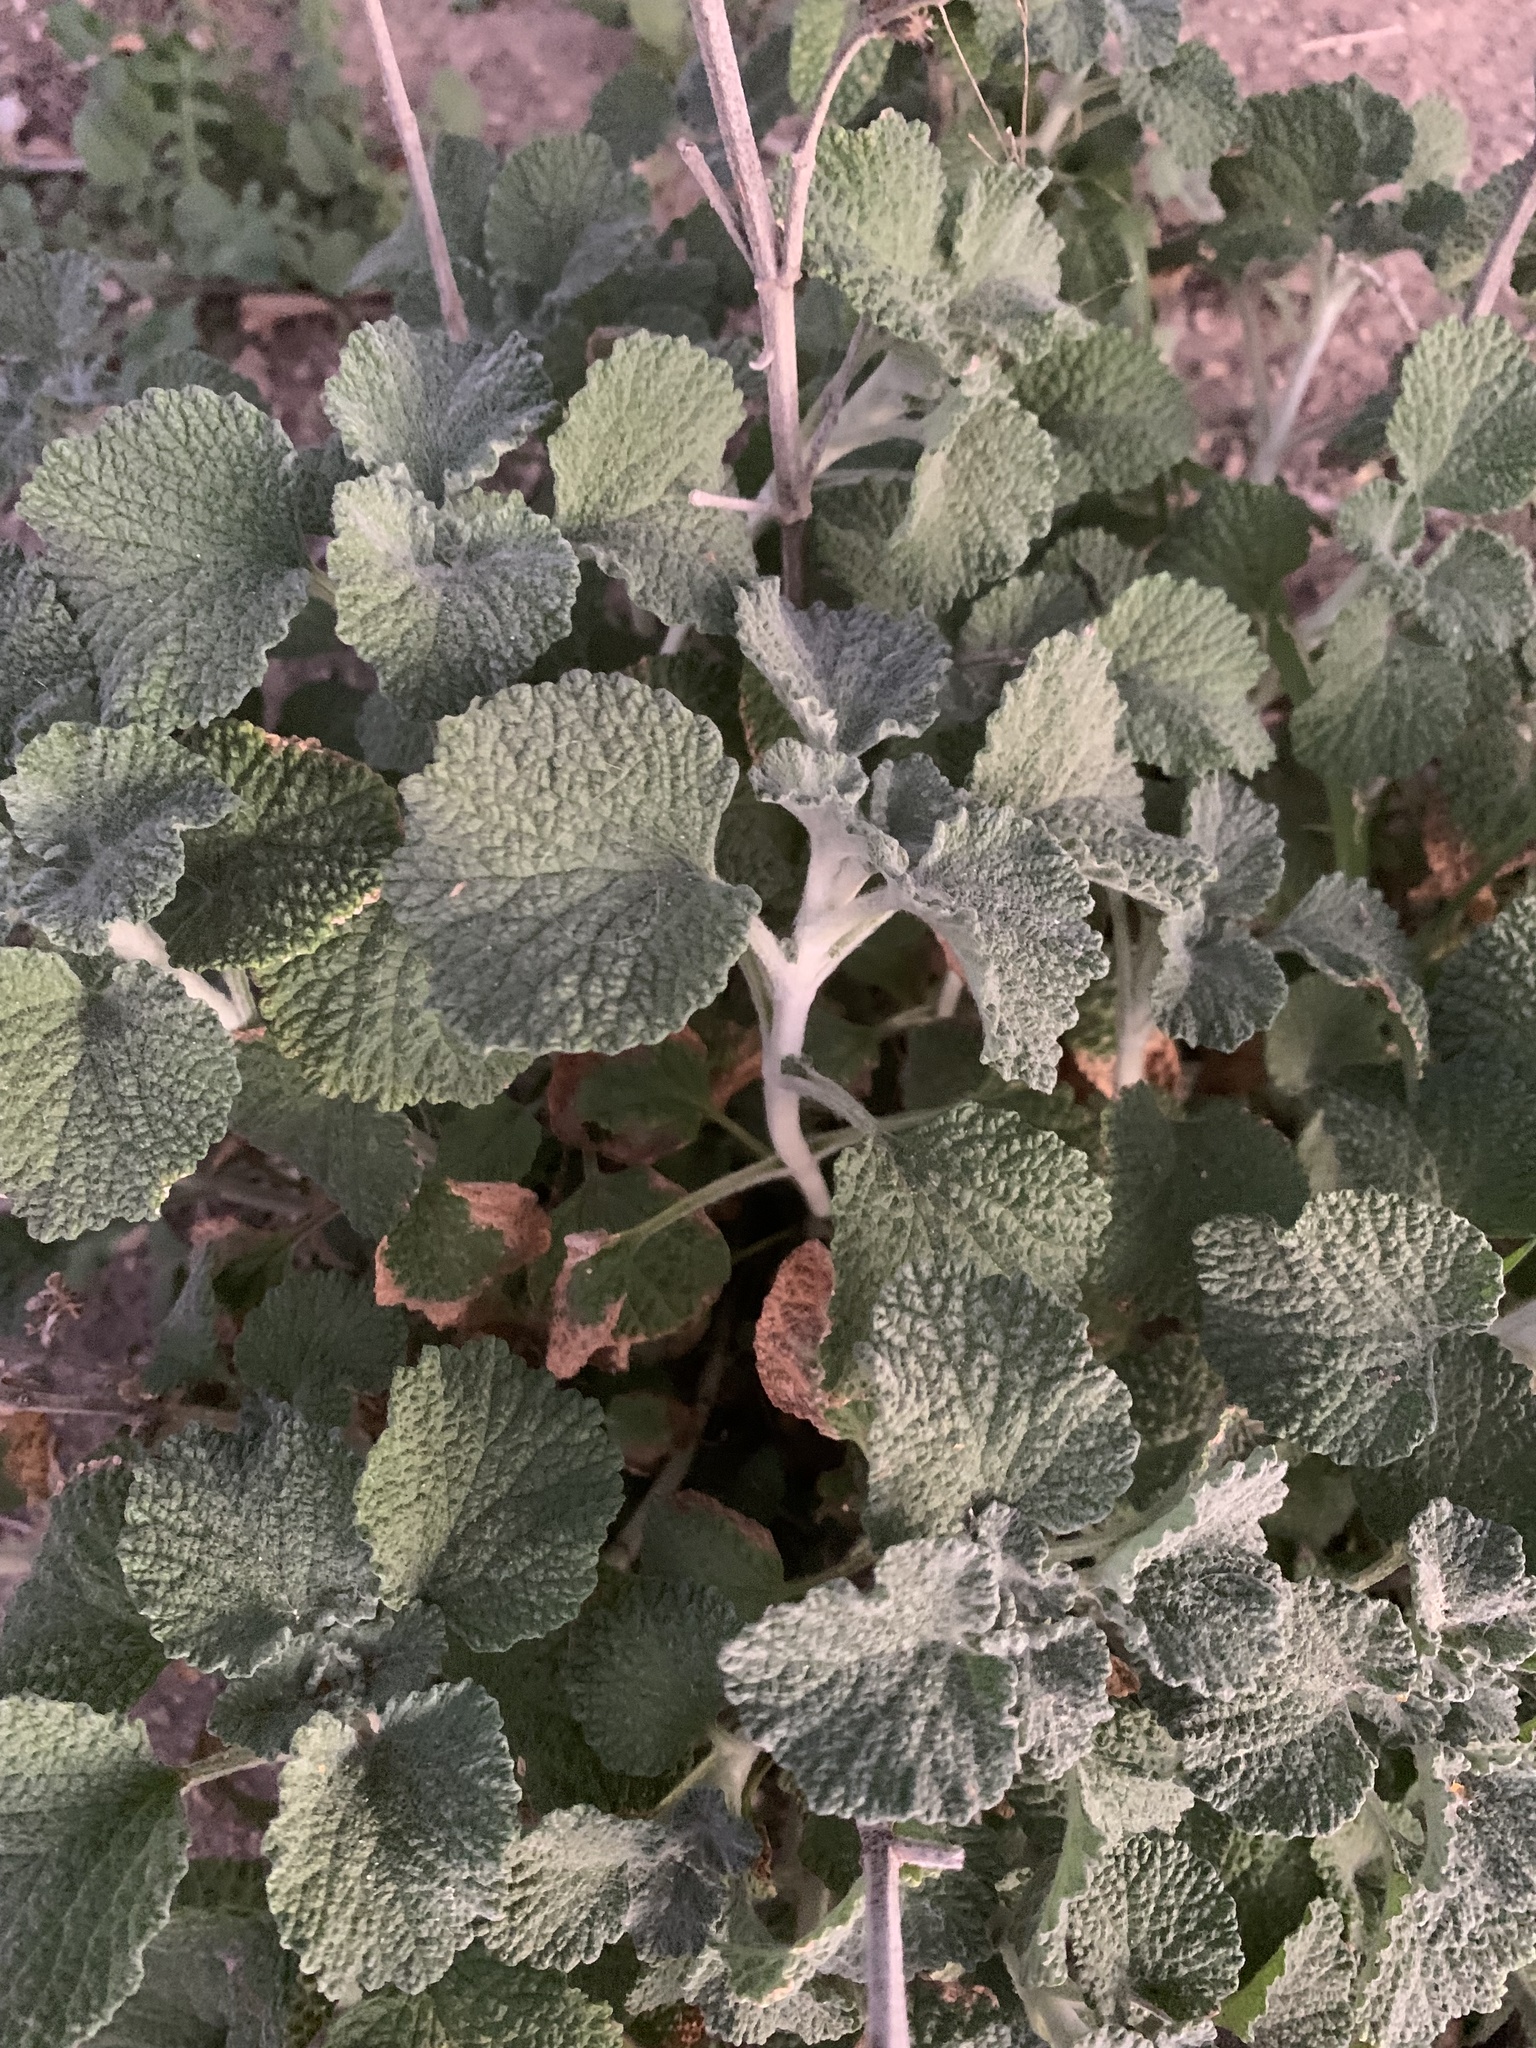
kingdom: Plantae
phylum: Tracheophyta
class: Magnoliopsida
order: Lamiales
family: Lamiaceae
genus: Marrubium
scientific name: Marrubium vulgare
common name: Horehound
